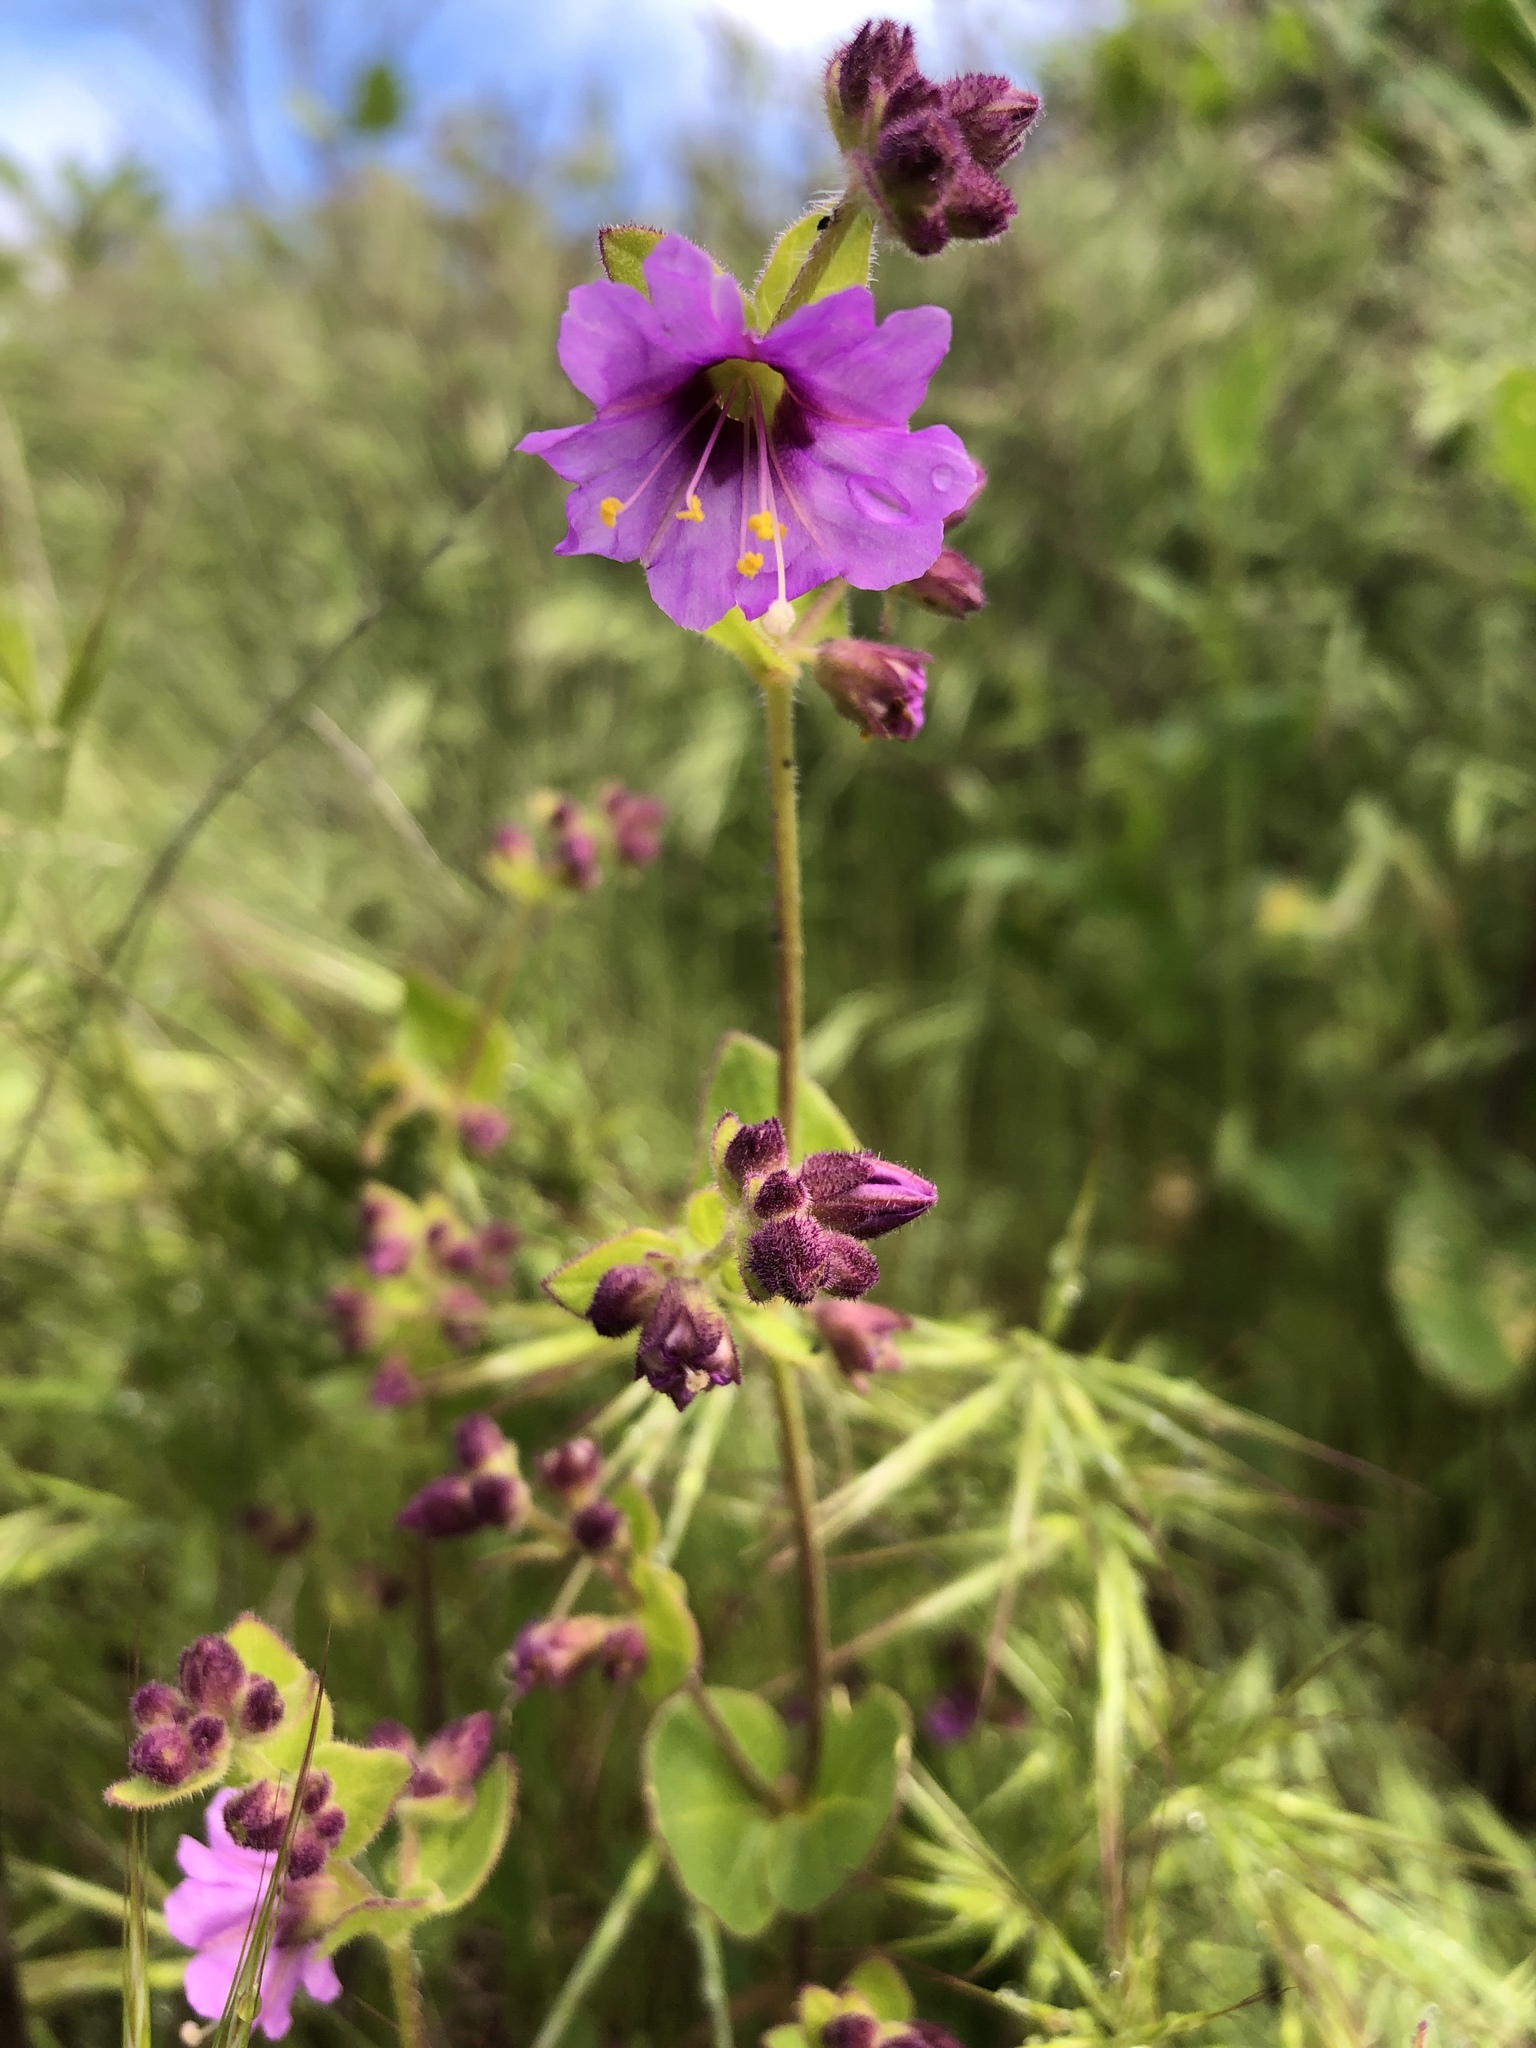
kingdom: Plantae
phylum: Tracheophyta
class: Magnoliopsida
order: Caryophyllales
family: Nyctaginaceae
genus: Mirabilis
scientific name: Mirabilis laevis
